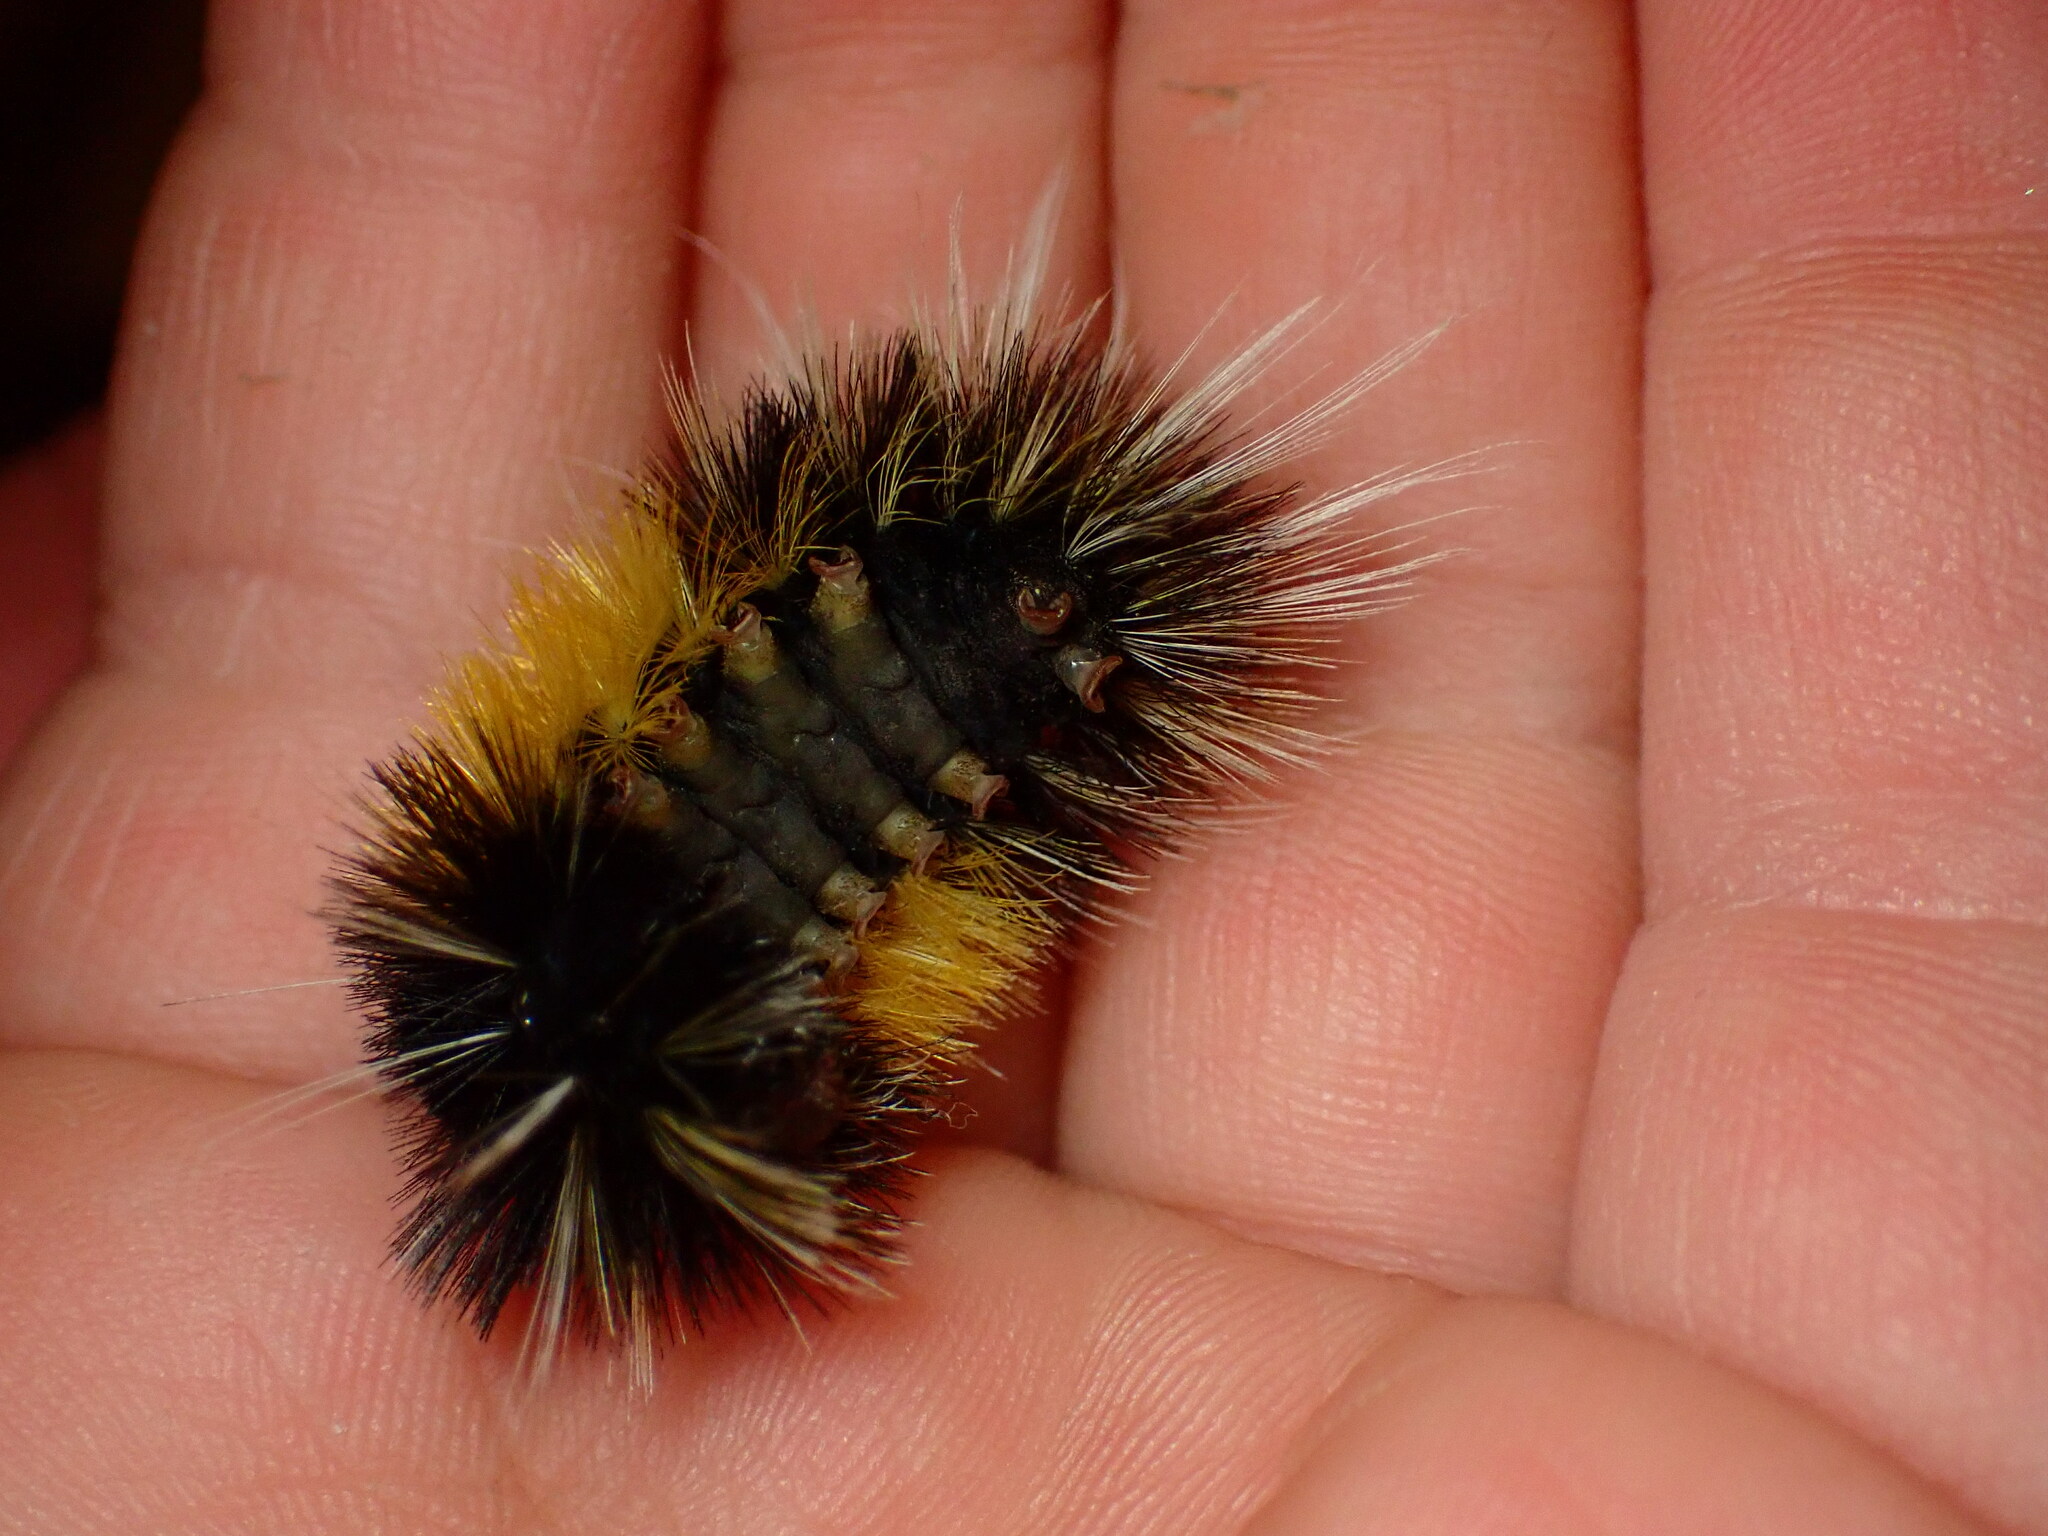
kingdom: Animalia
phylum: Arthropoda
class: Insecta
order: Lepidoptera
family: Erebidae
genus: Lophocampa
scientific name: Lophocampa maculata
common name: Spotted tussock moth
